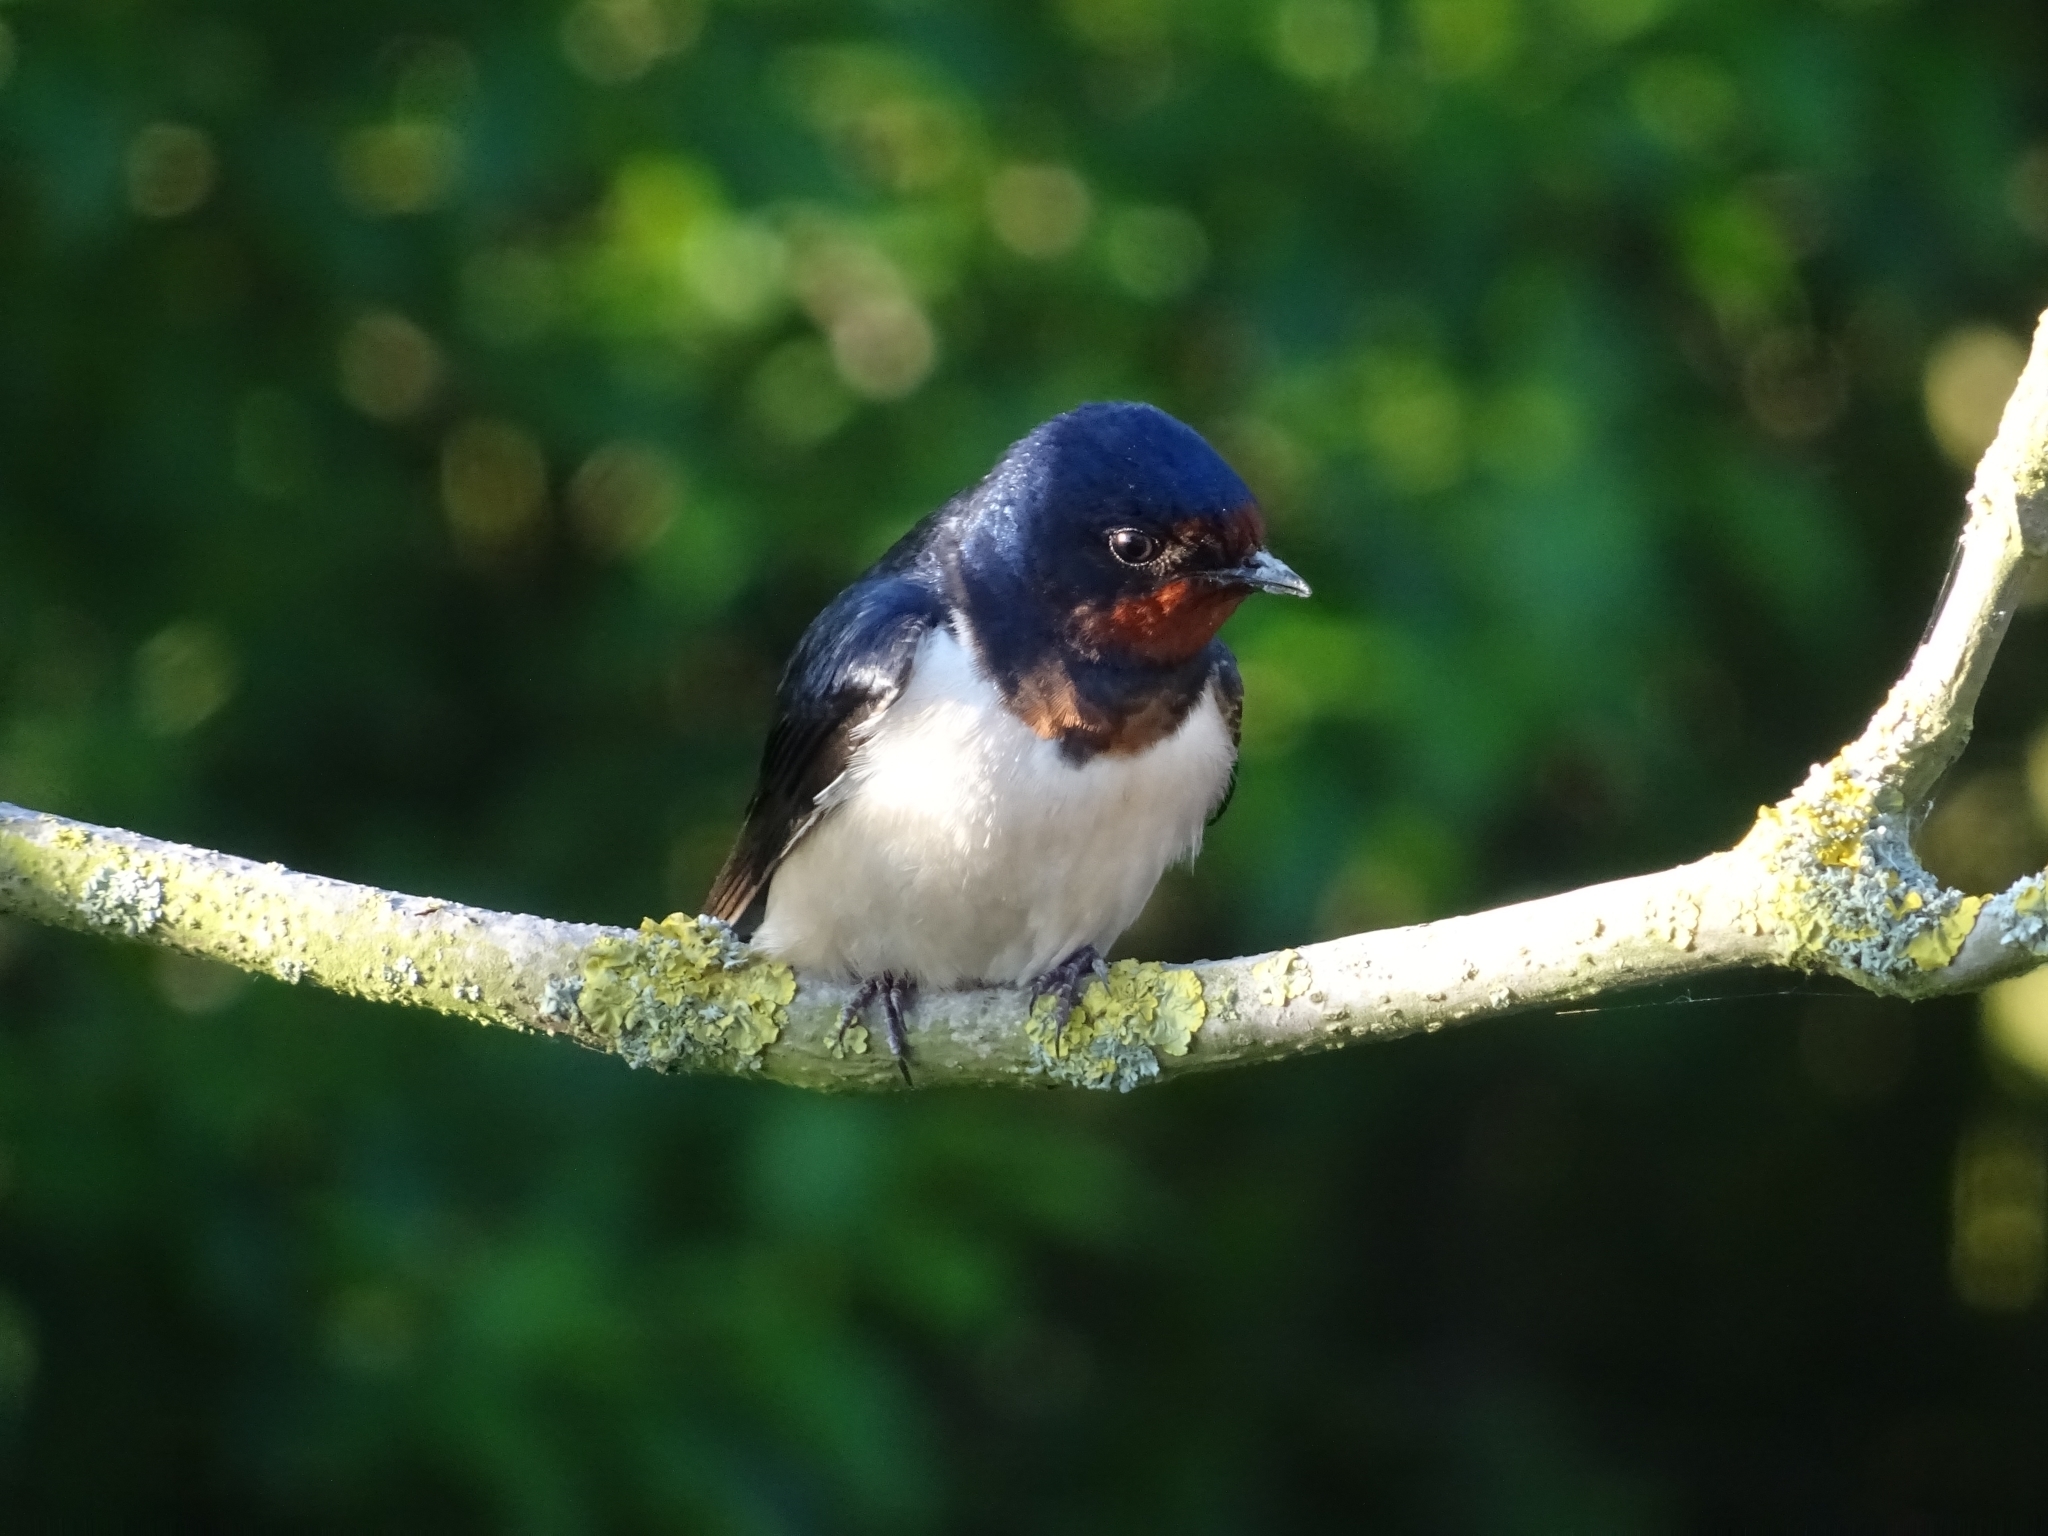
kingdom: Animalia
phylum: Chordata
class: Aves
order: Passeriformes
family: Hirundinidae
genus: Hirundo
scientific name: Hirundo rustica
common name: Barn swallow
